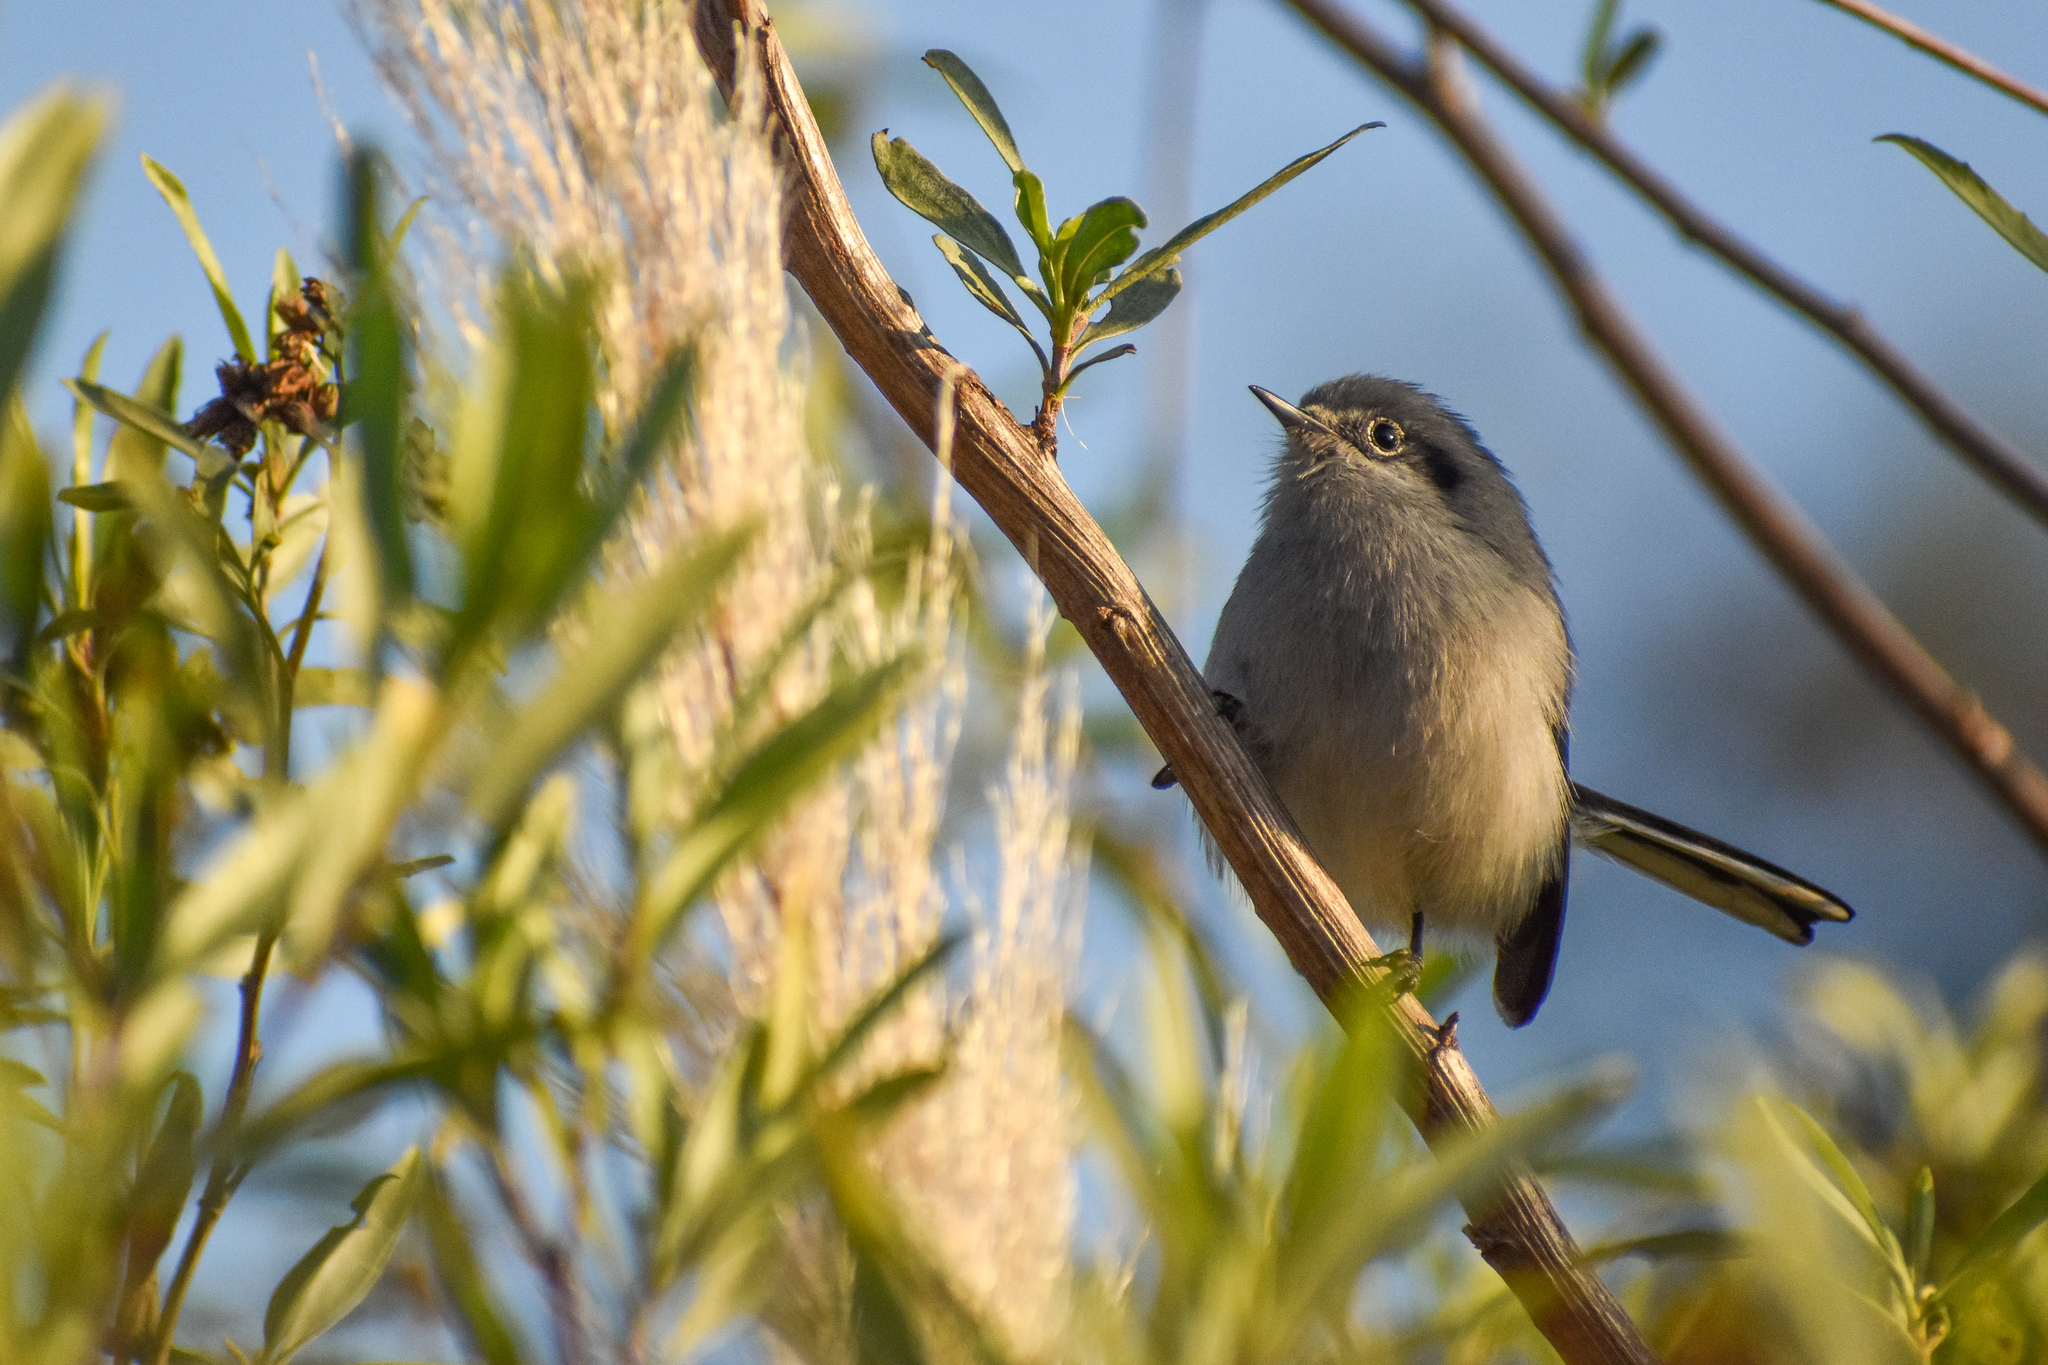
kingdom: Animalia
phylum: Chordata
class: Aves
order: Passeriformes
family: Polioptilidae
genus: Polioptila
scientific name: Polioptila dumicola
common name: Masked gnatcatcher
